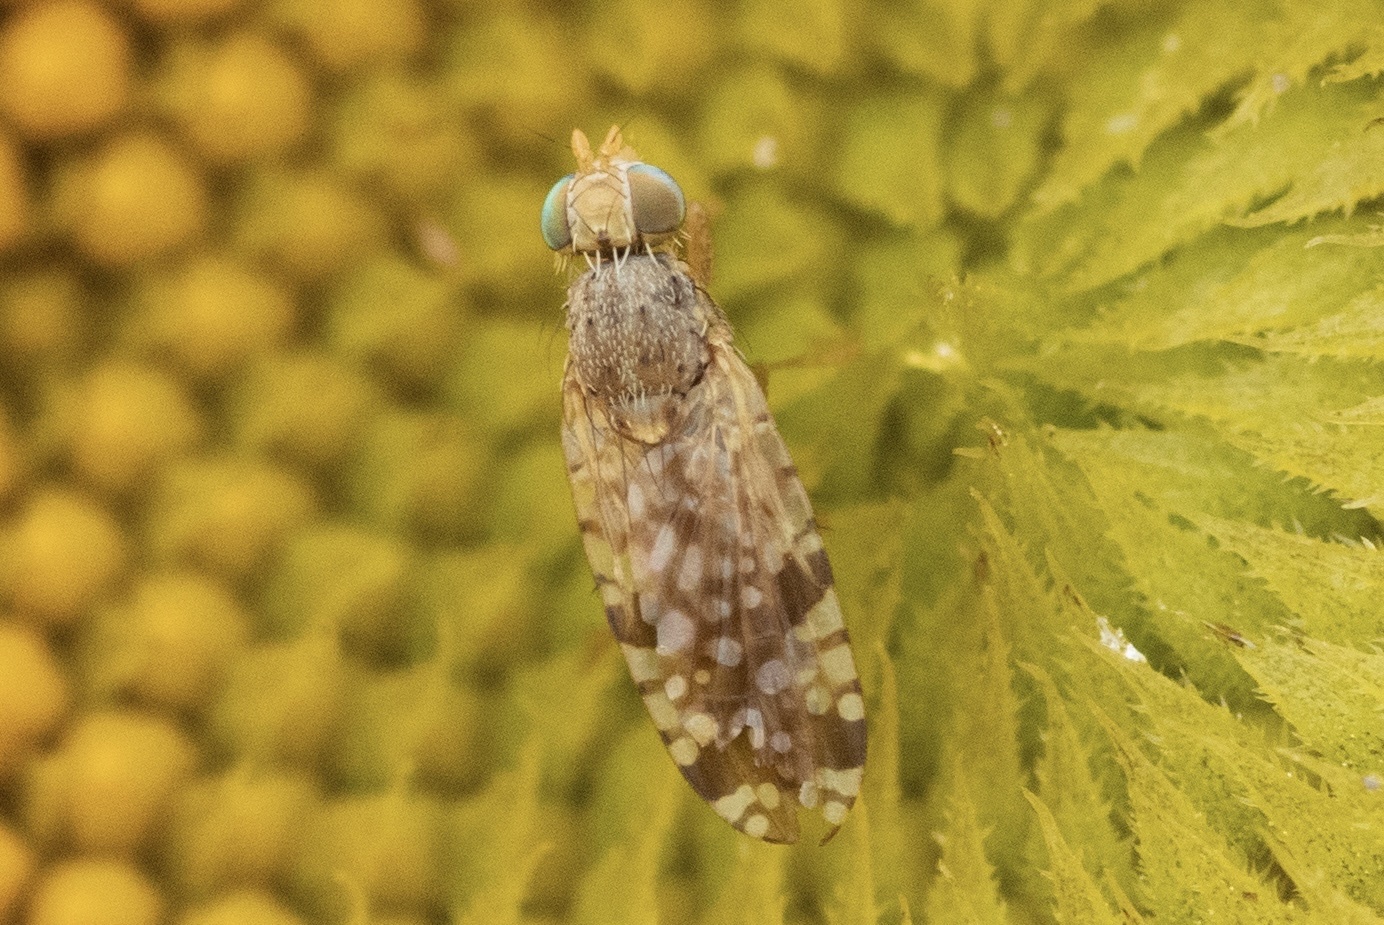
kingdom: Animalia
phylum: Arthropoda
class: Insecta
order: Diptera
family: Tephritidae
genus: Neotephritis
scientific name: Neotephritis finalis
